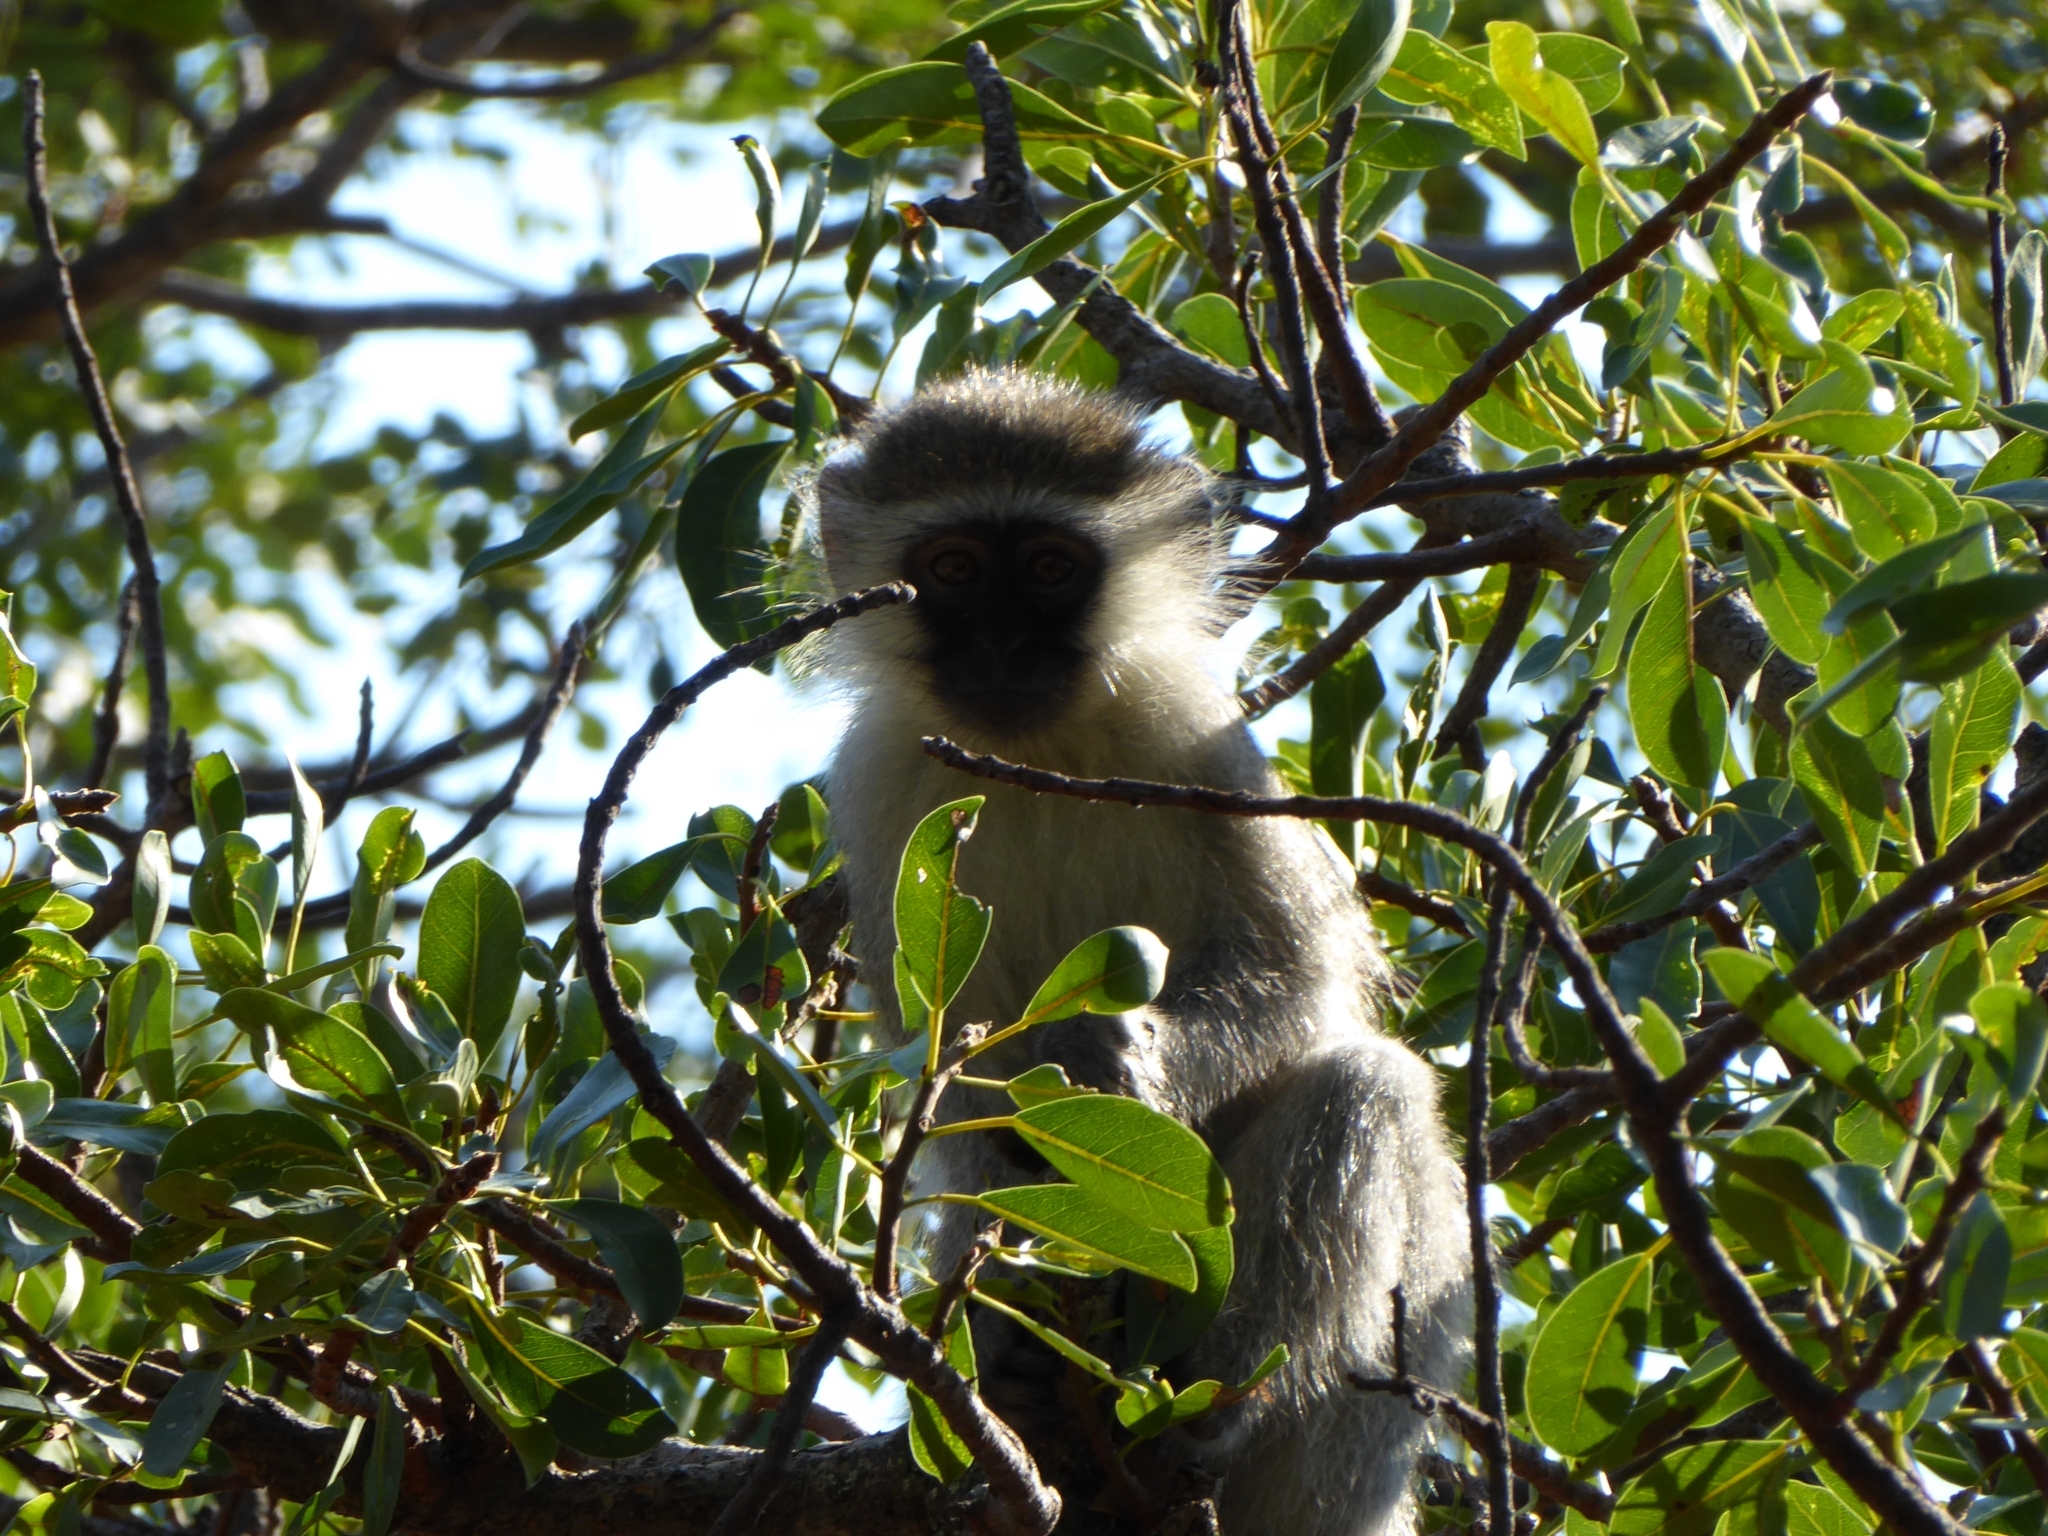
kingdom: Animalia
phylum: Chordata
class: Mammalia
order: Primates
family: Cercopithecidae
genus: Chlorocebus
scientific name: Chlorocebus pygerythrus
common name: Vervet monkey
